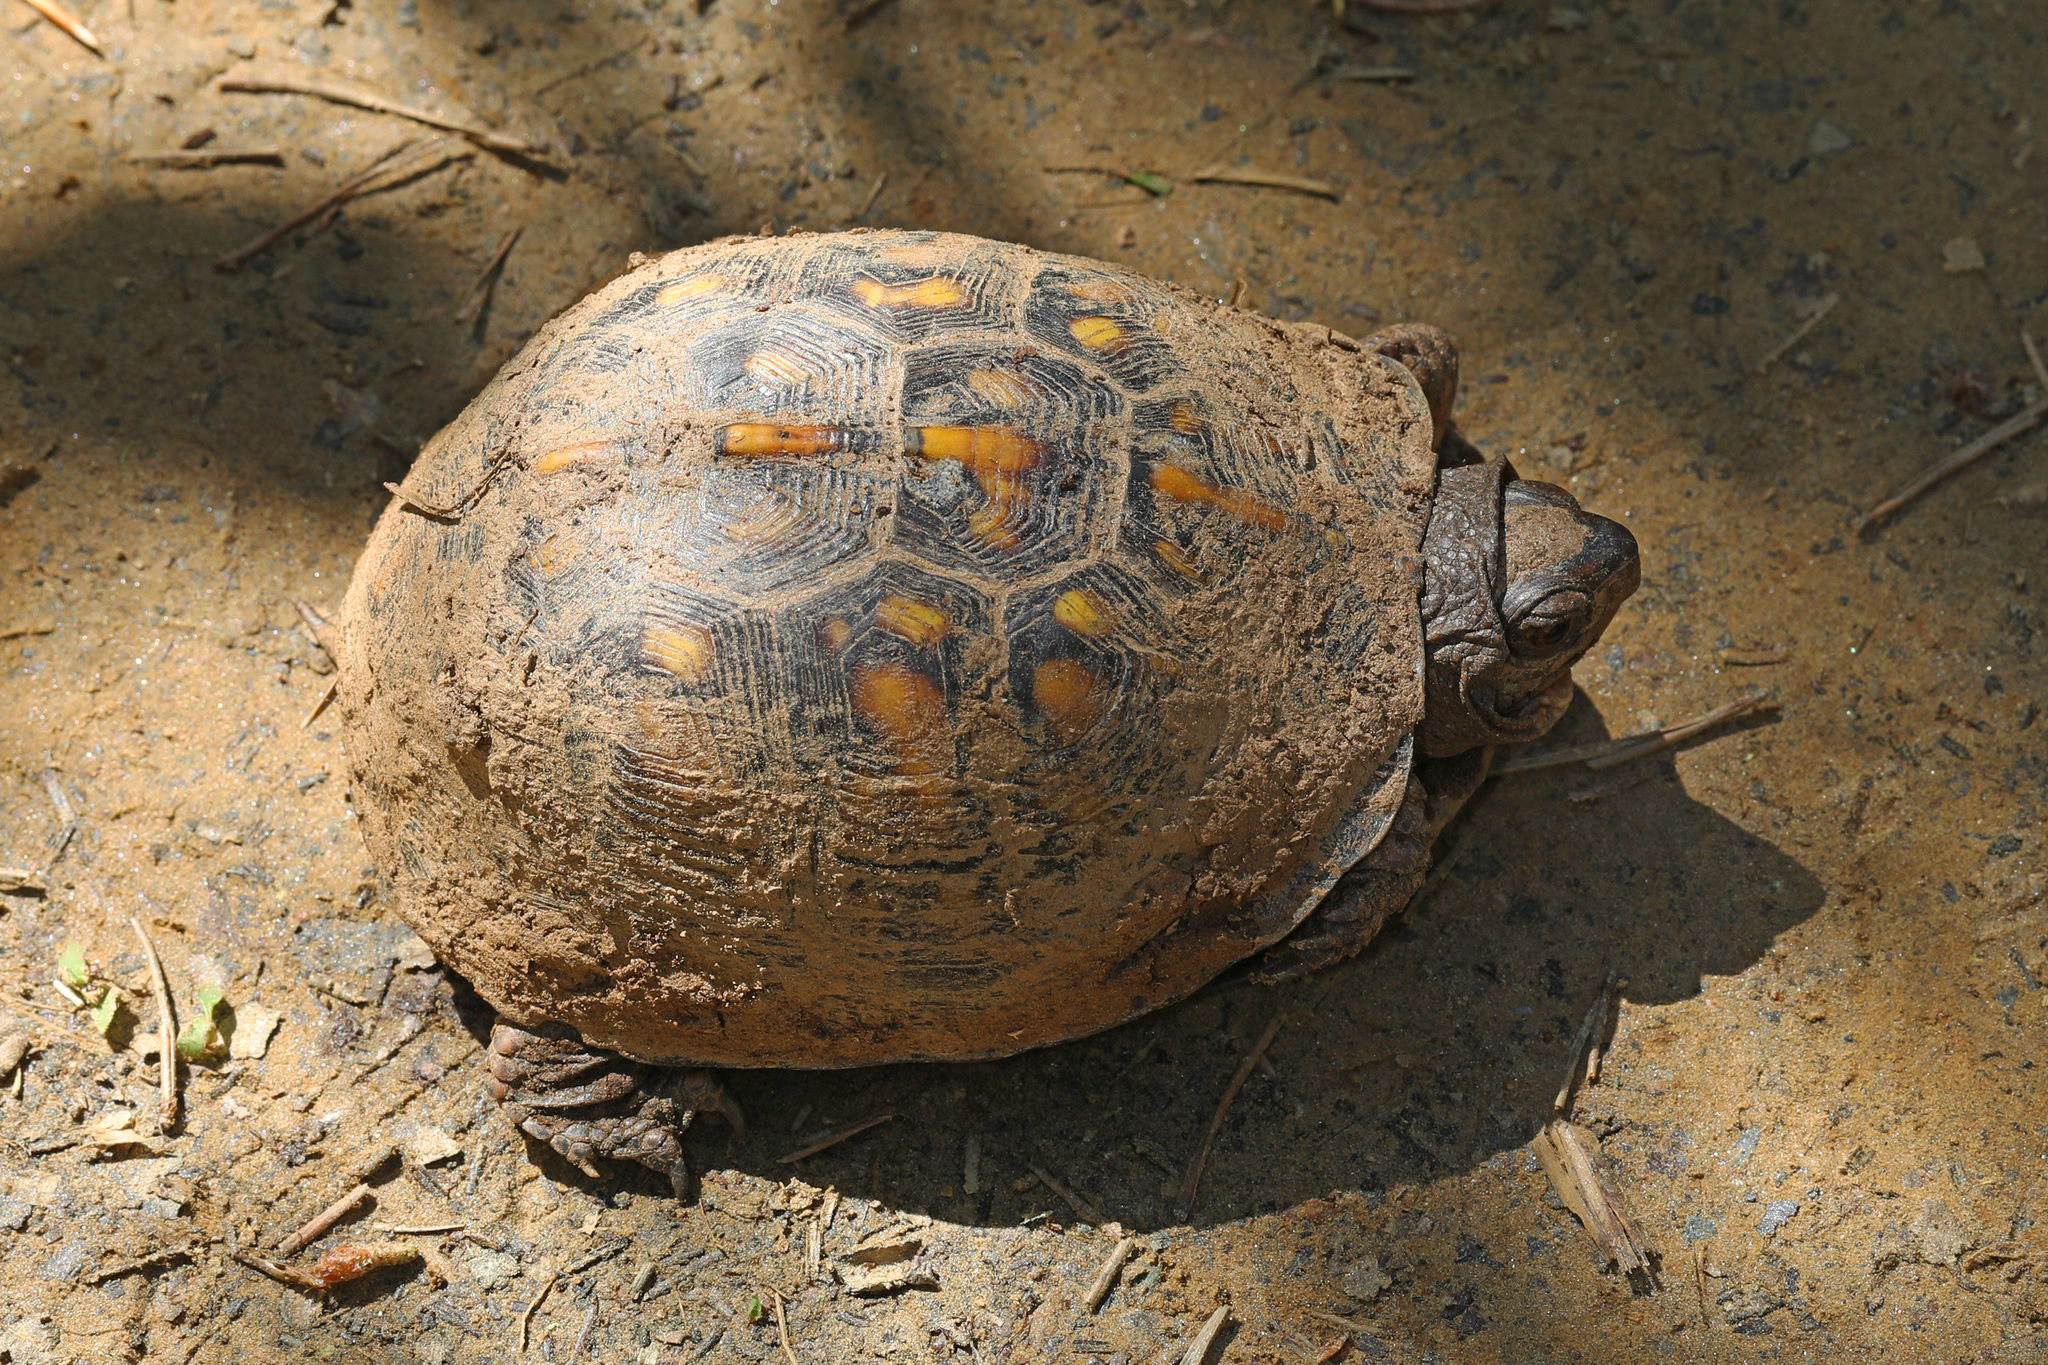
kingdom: Animalia
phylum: Chordata
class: Testudines
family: Emydidae
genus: Terrapene
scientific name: Terrapene carolina
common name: Common box turtle
